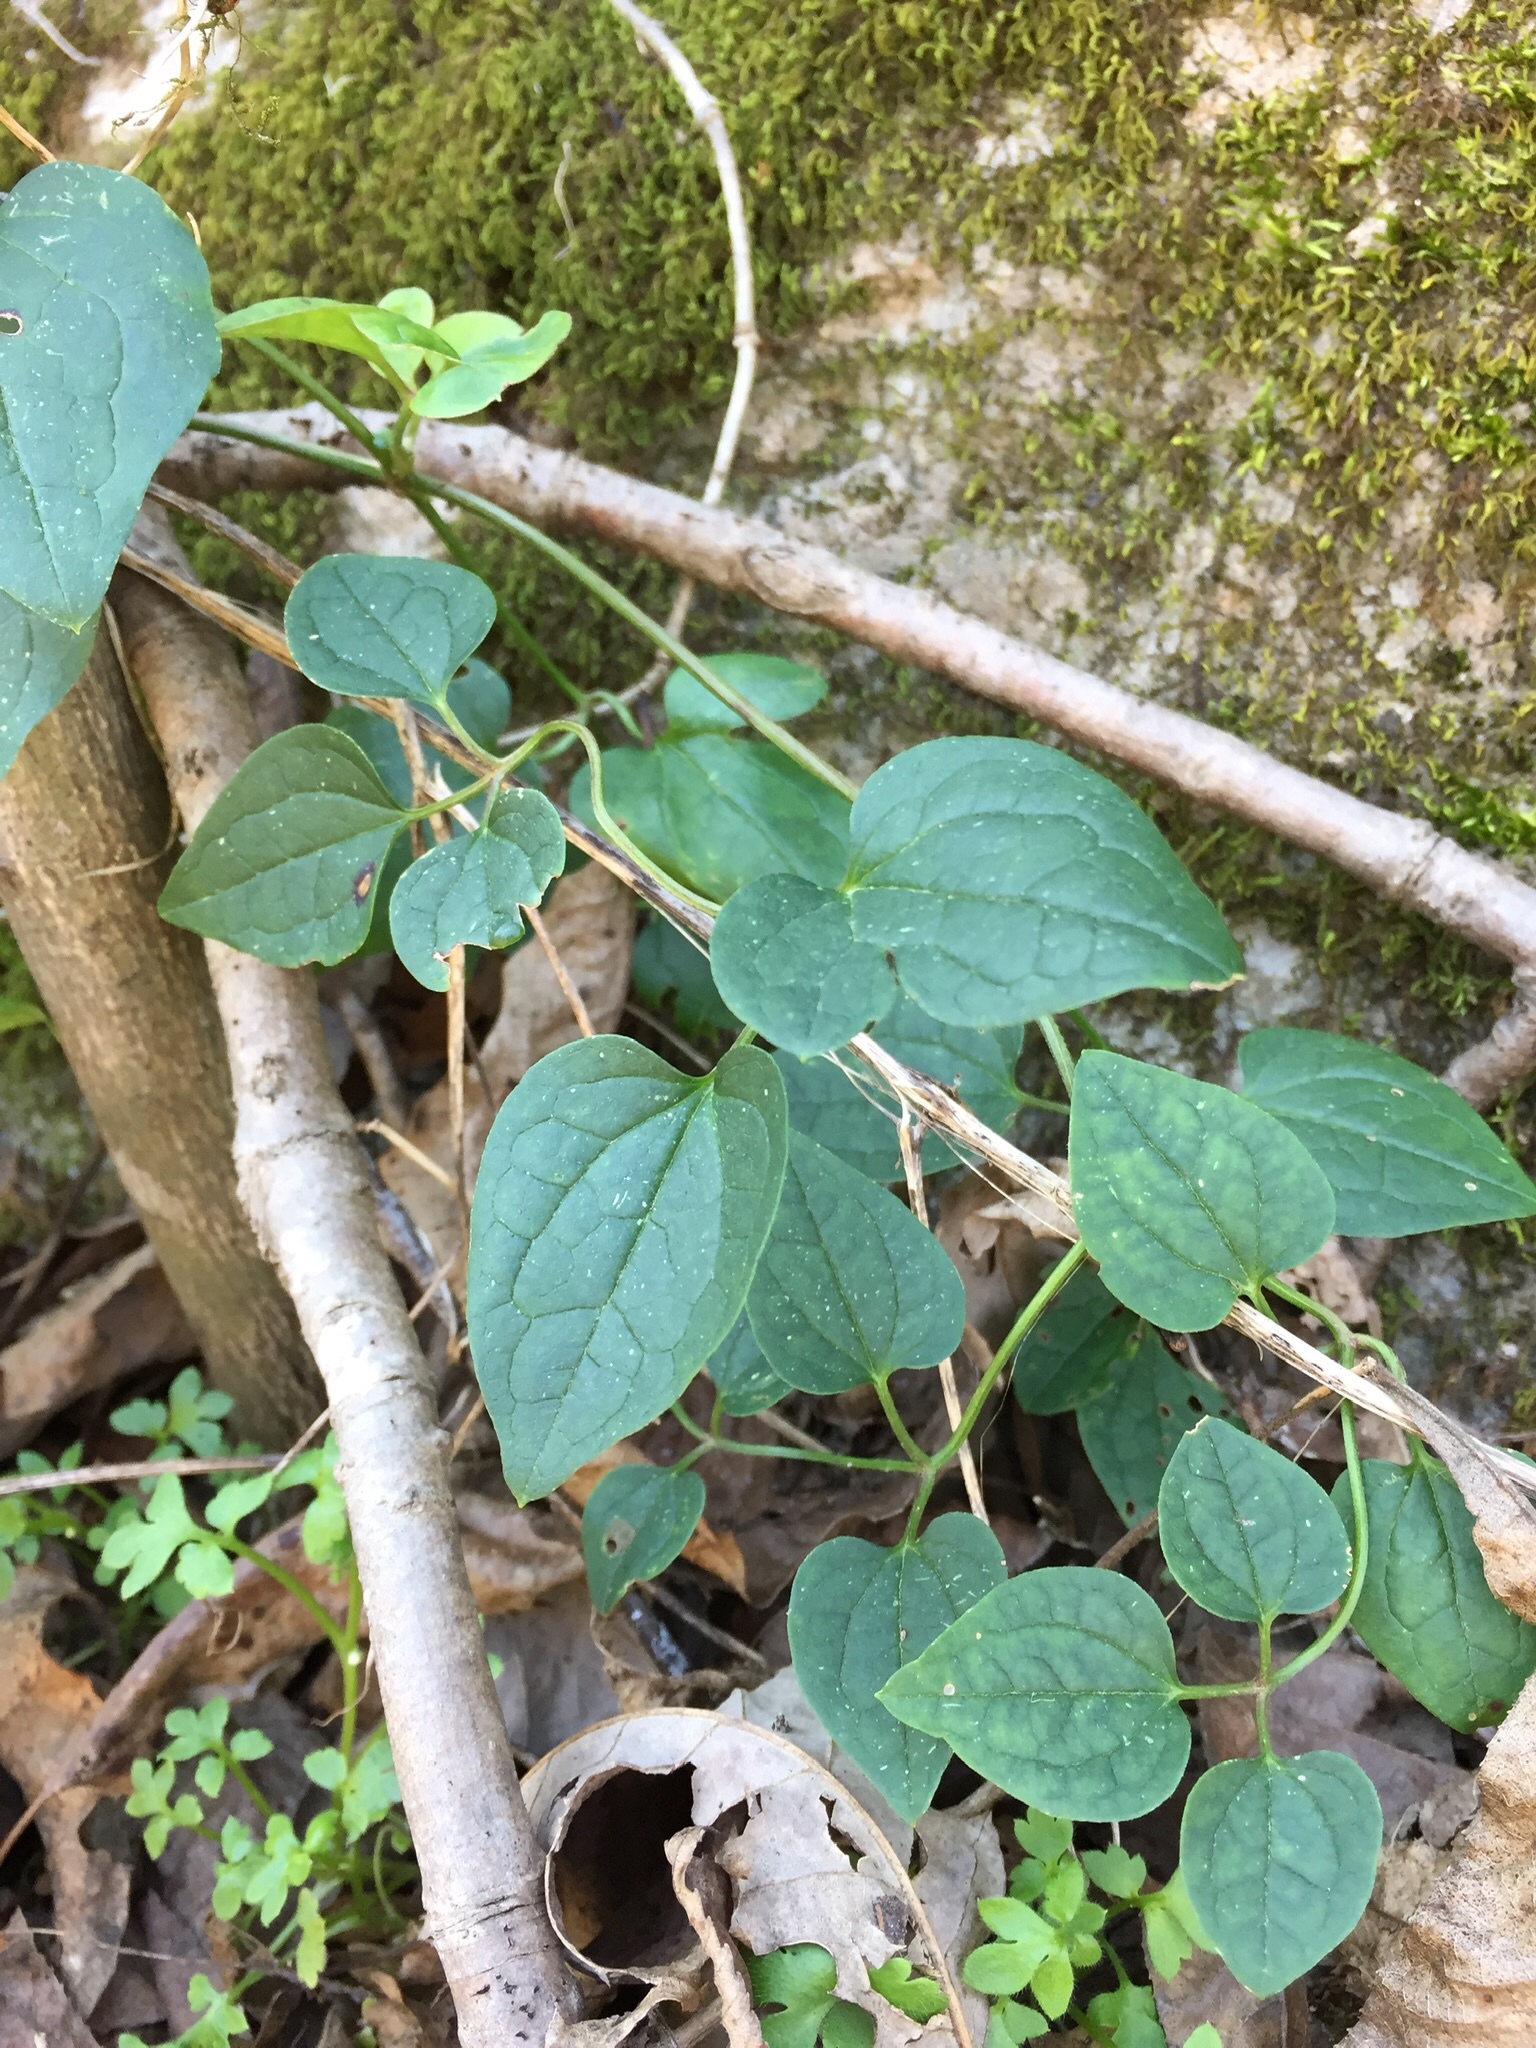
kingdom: Plantae
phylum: Tracheophyta
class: Magnoliopsida
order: Ranunculales
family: Ranunculaceae
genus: Clematis
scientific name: Clematis terniflora
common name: Sweet autumn clematis
